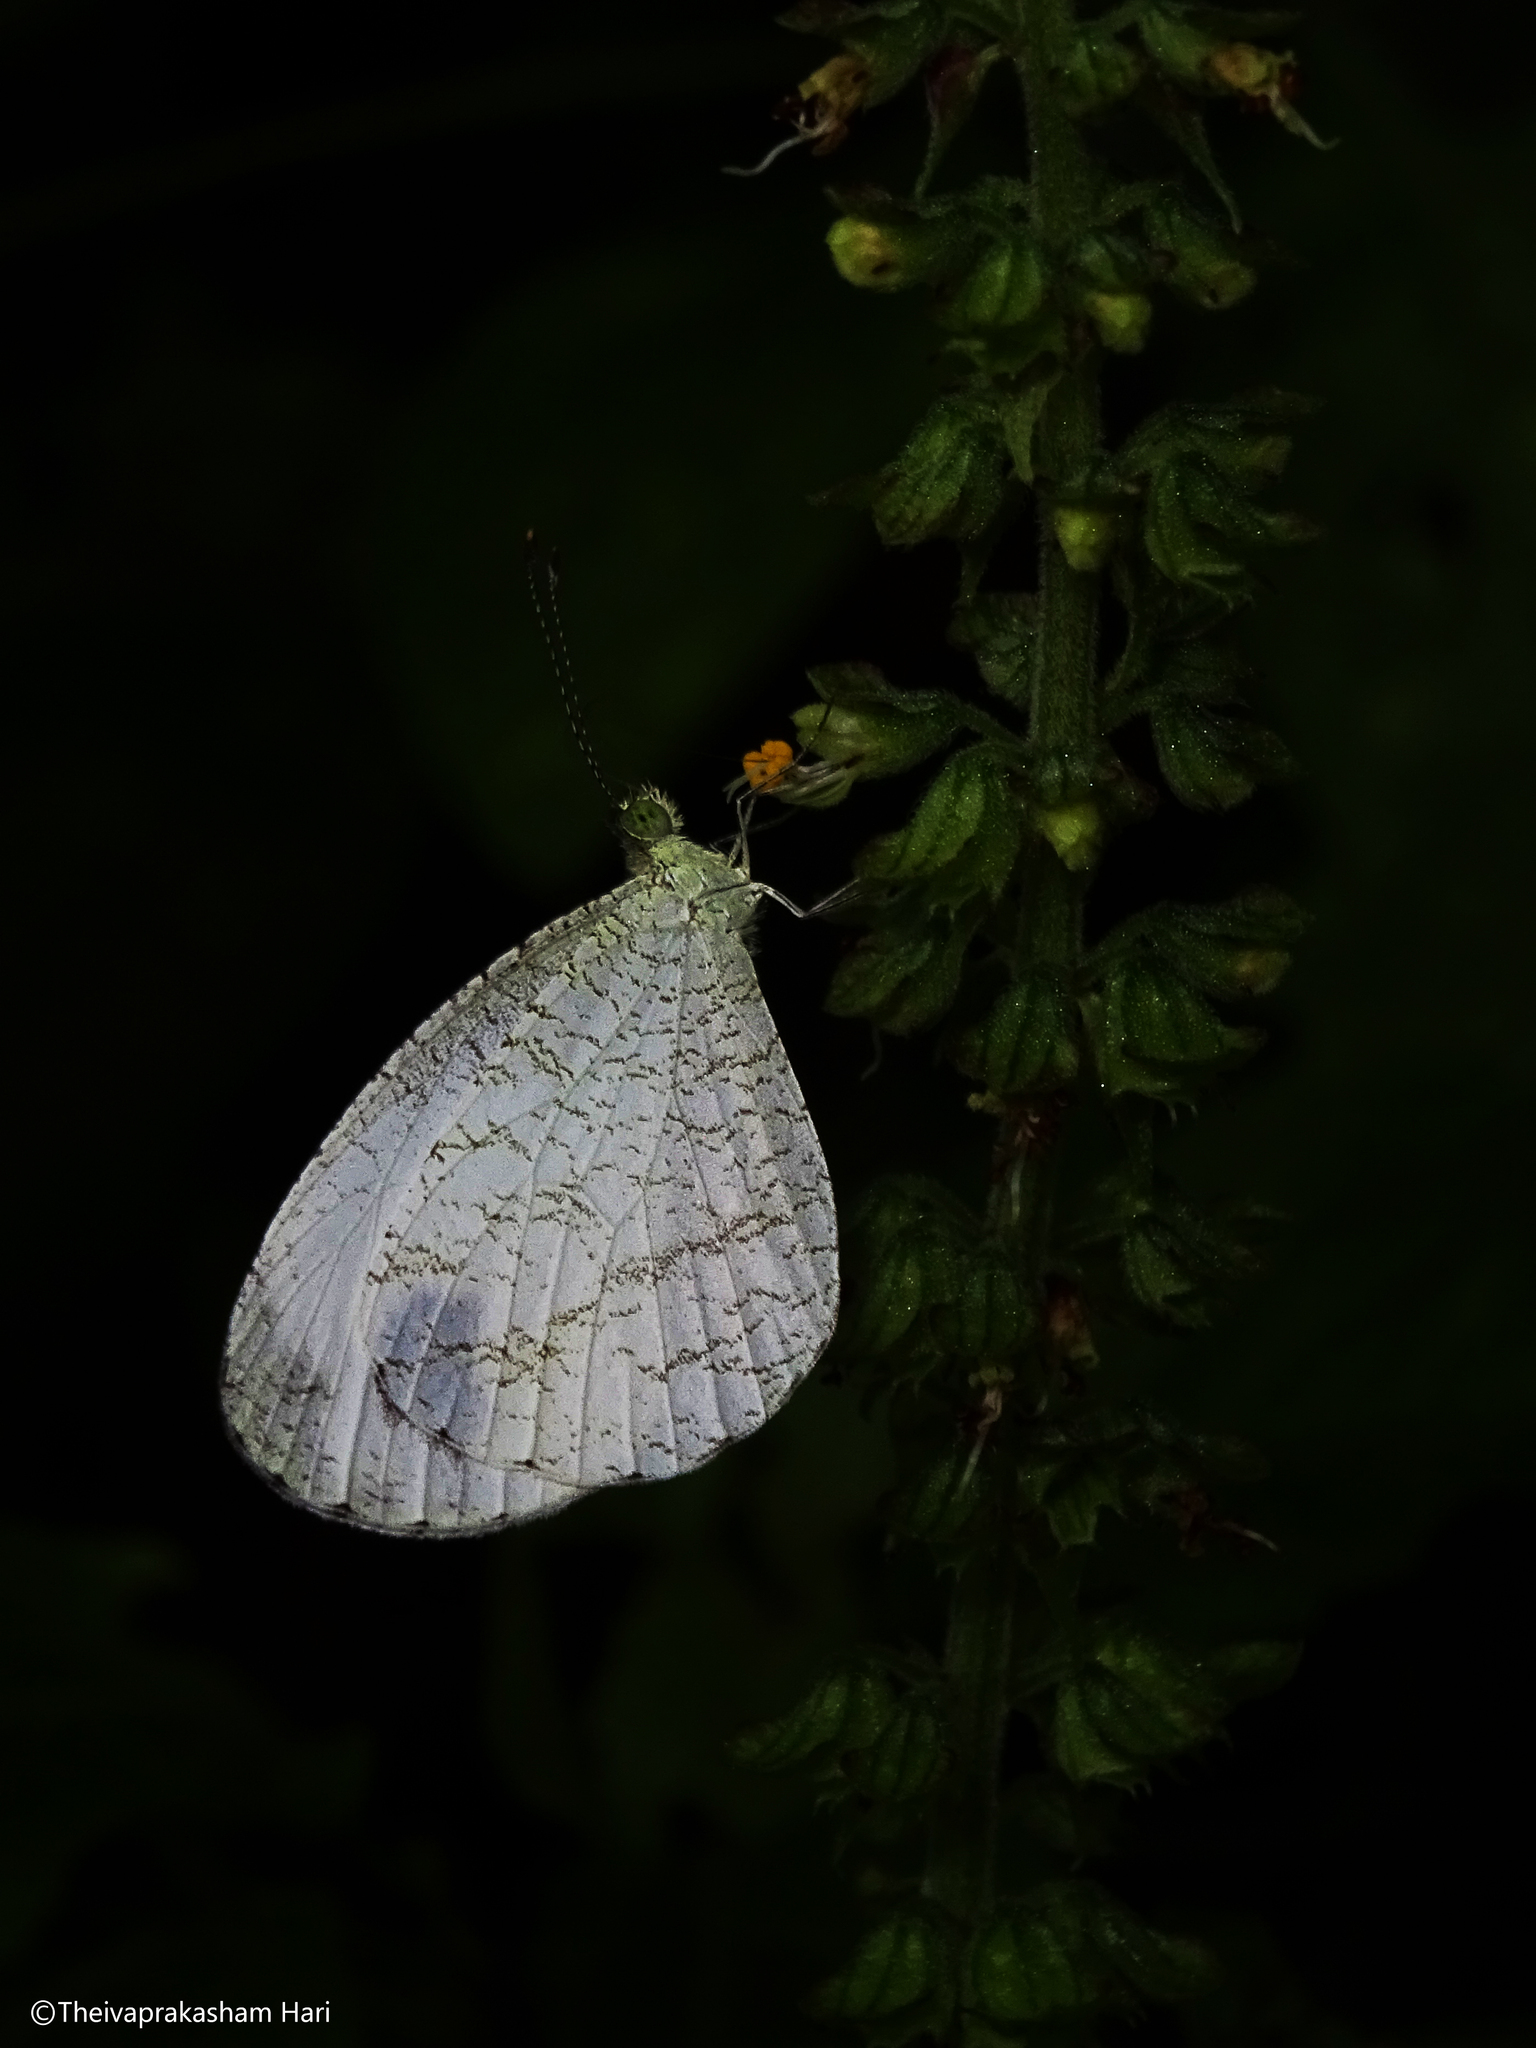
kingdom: Animalia
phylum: Arthropoda
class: Insecta
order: Lepidoptera
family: Pieridae
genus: Leptosia
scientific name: Leptosia nina
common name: Psyche
